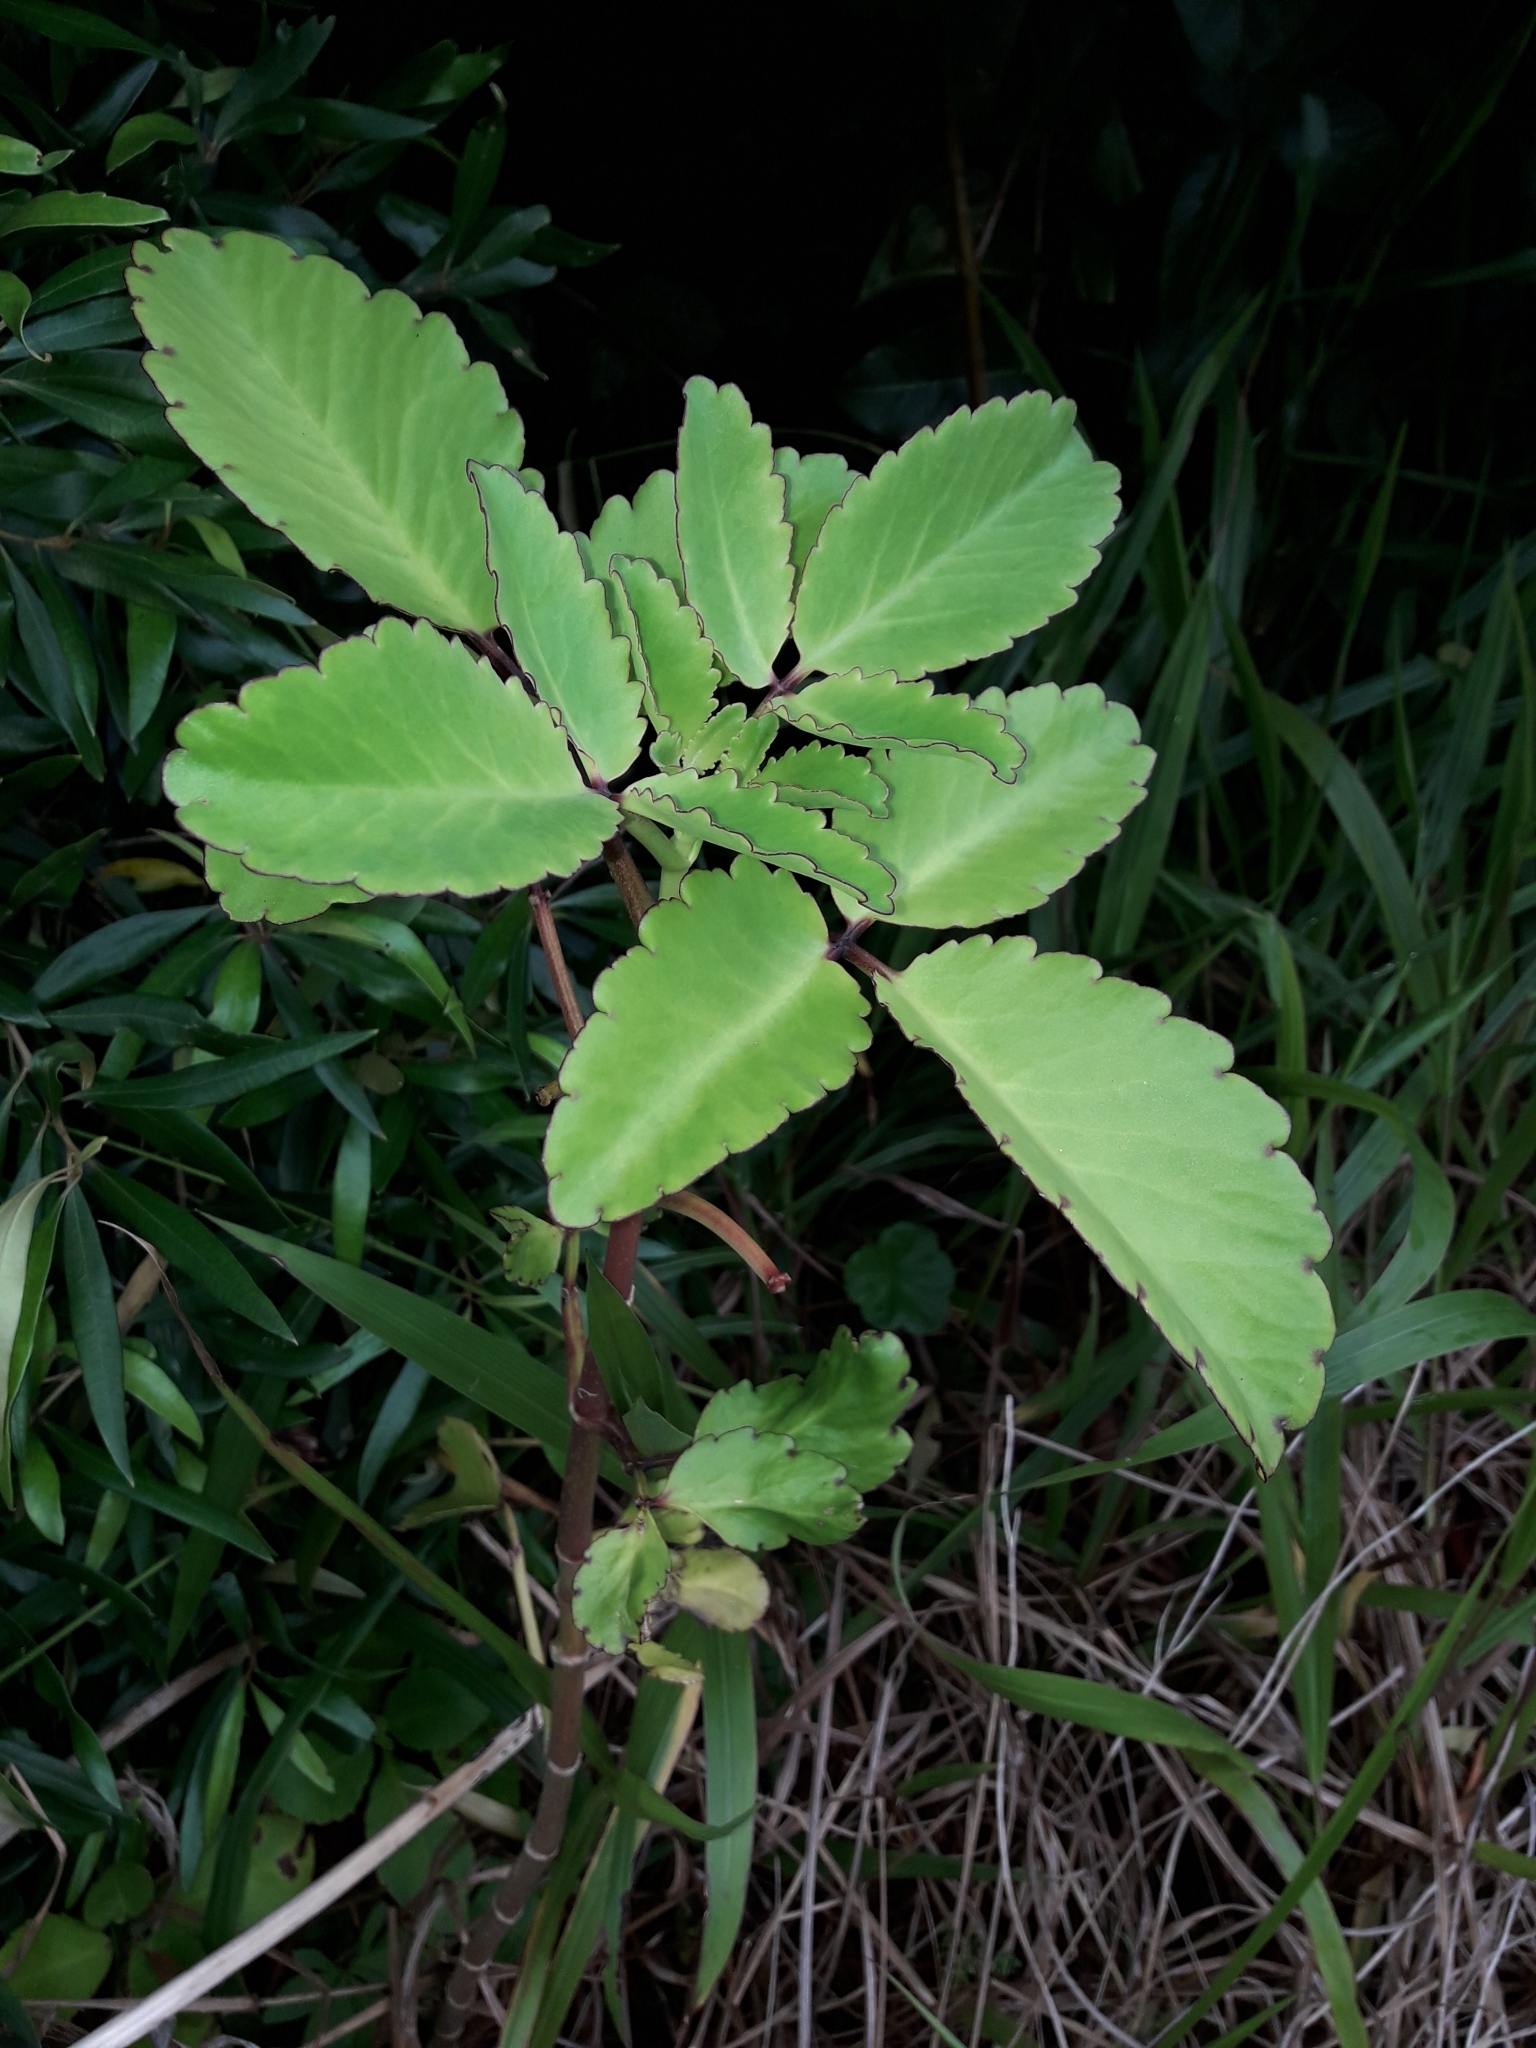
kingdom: Plantae
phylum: Tracheophyta
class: Magnoliopsida
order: Saxifragales
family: Crassulaceae
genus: Kalanchoe
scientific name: Kalanchoe pinnata
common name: Cathedral bells
